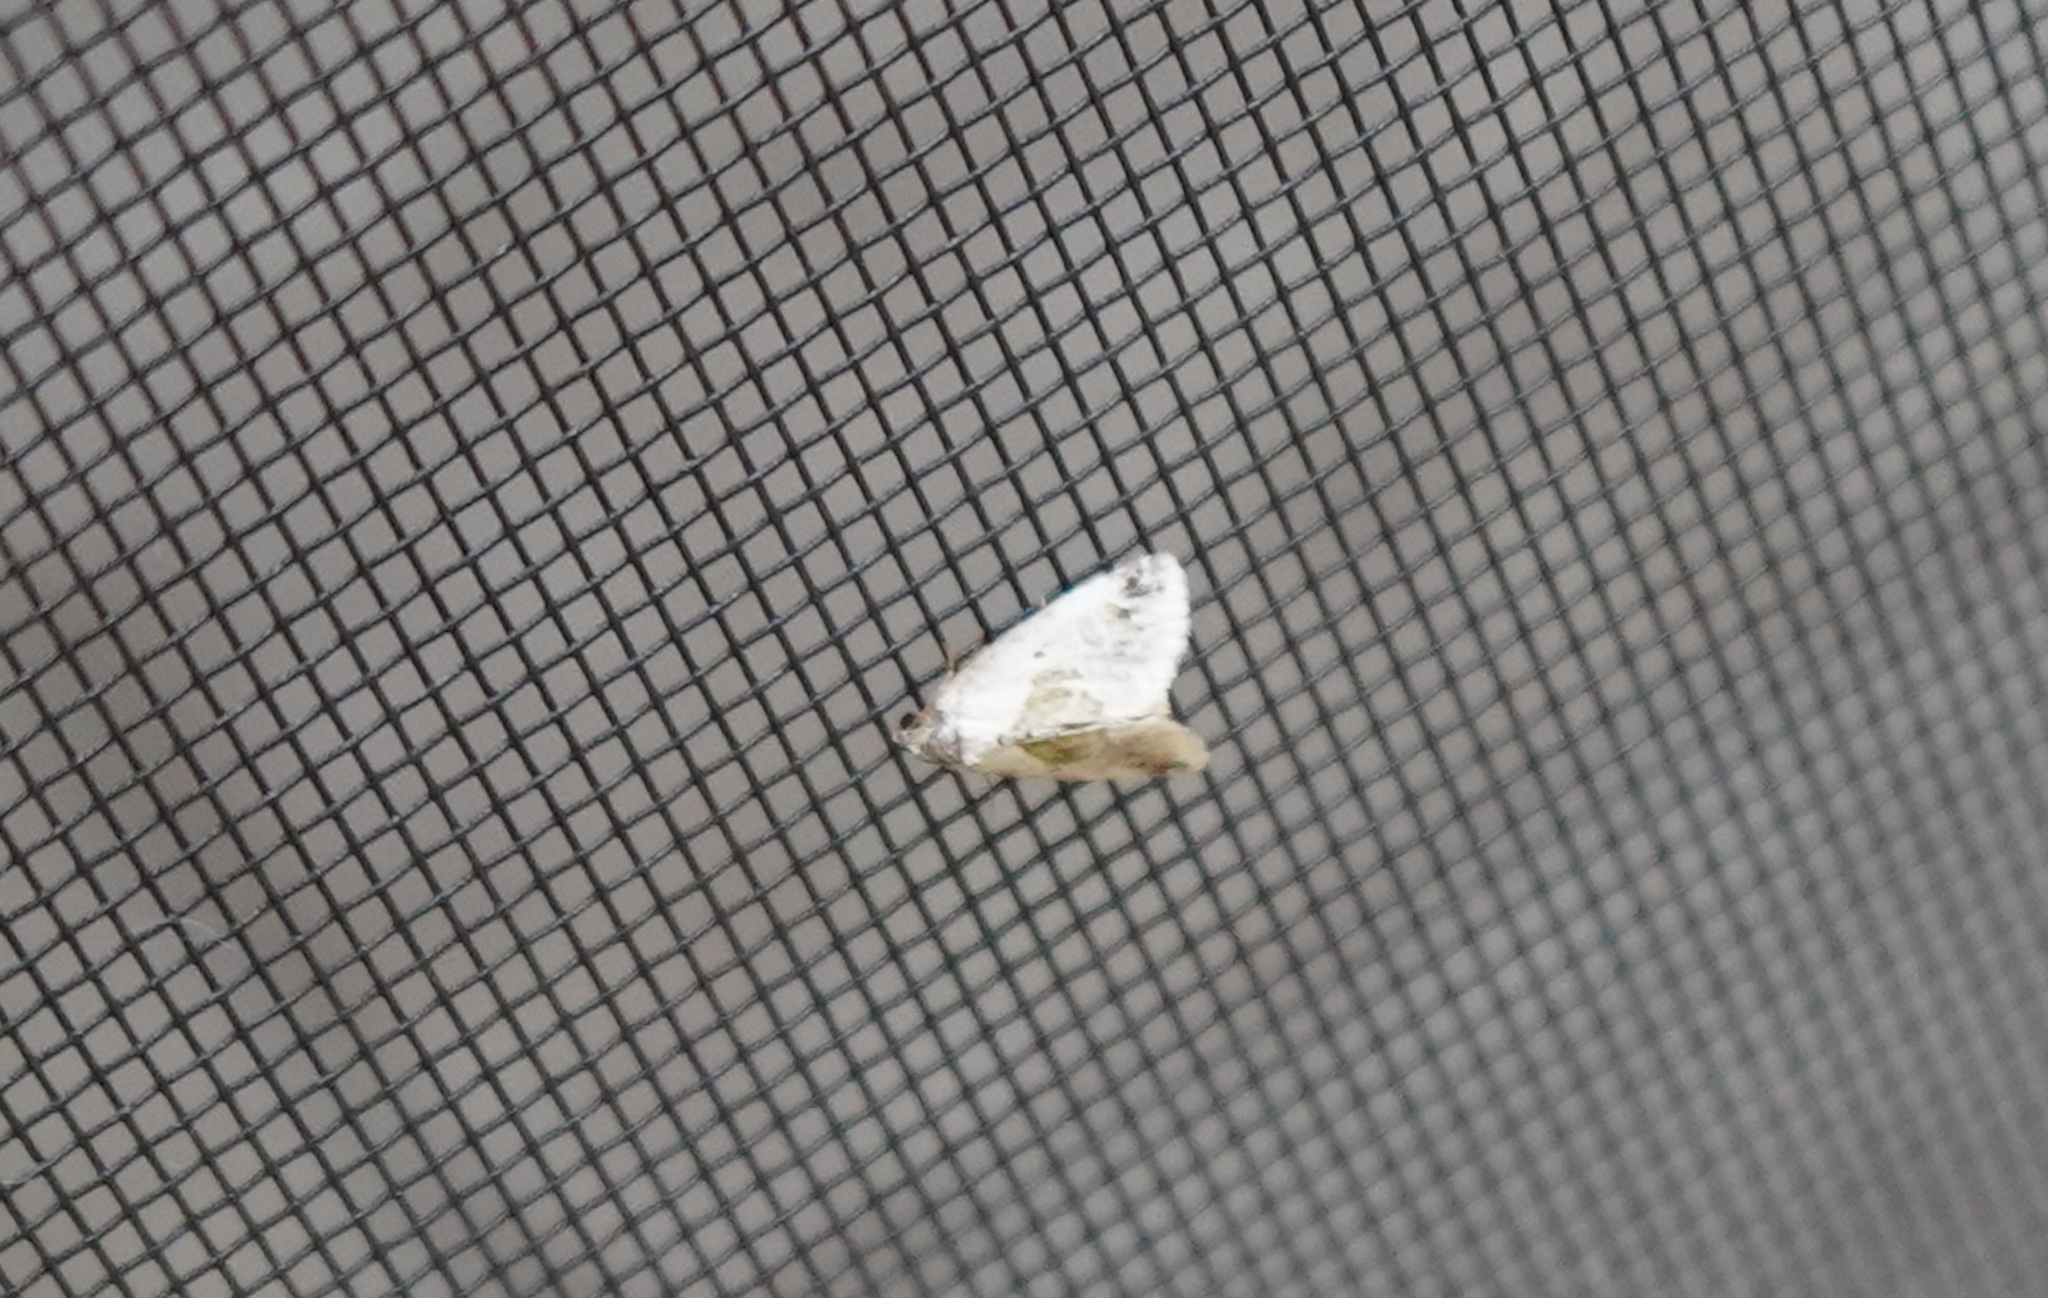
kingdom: Animalia
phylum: Arthropoda
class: Insecta
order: Lepidoptera
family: Noctuidae
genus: Maliattha
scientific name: Maliattha synochitis
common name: Black-dotted glyph
